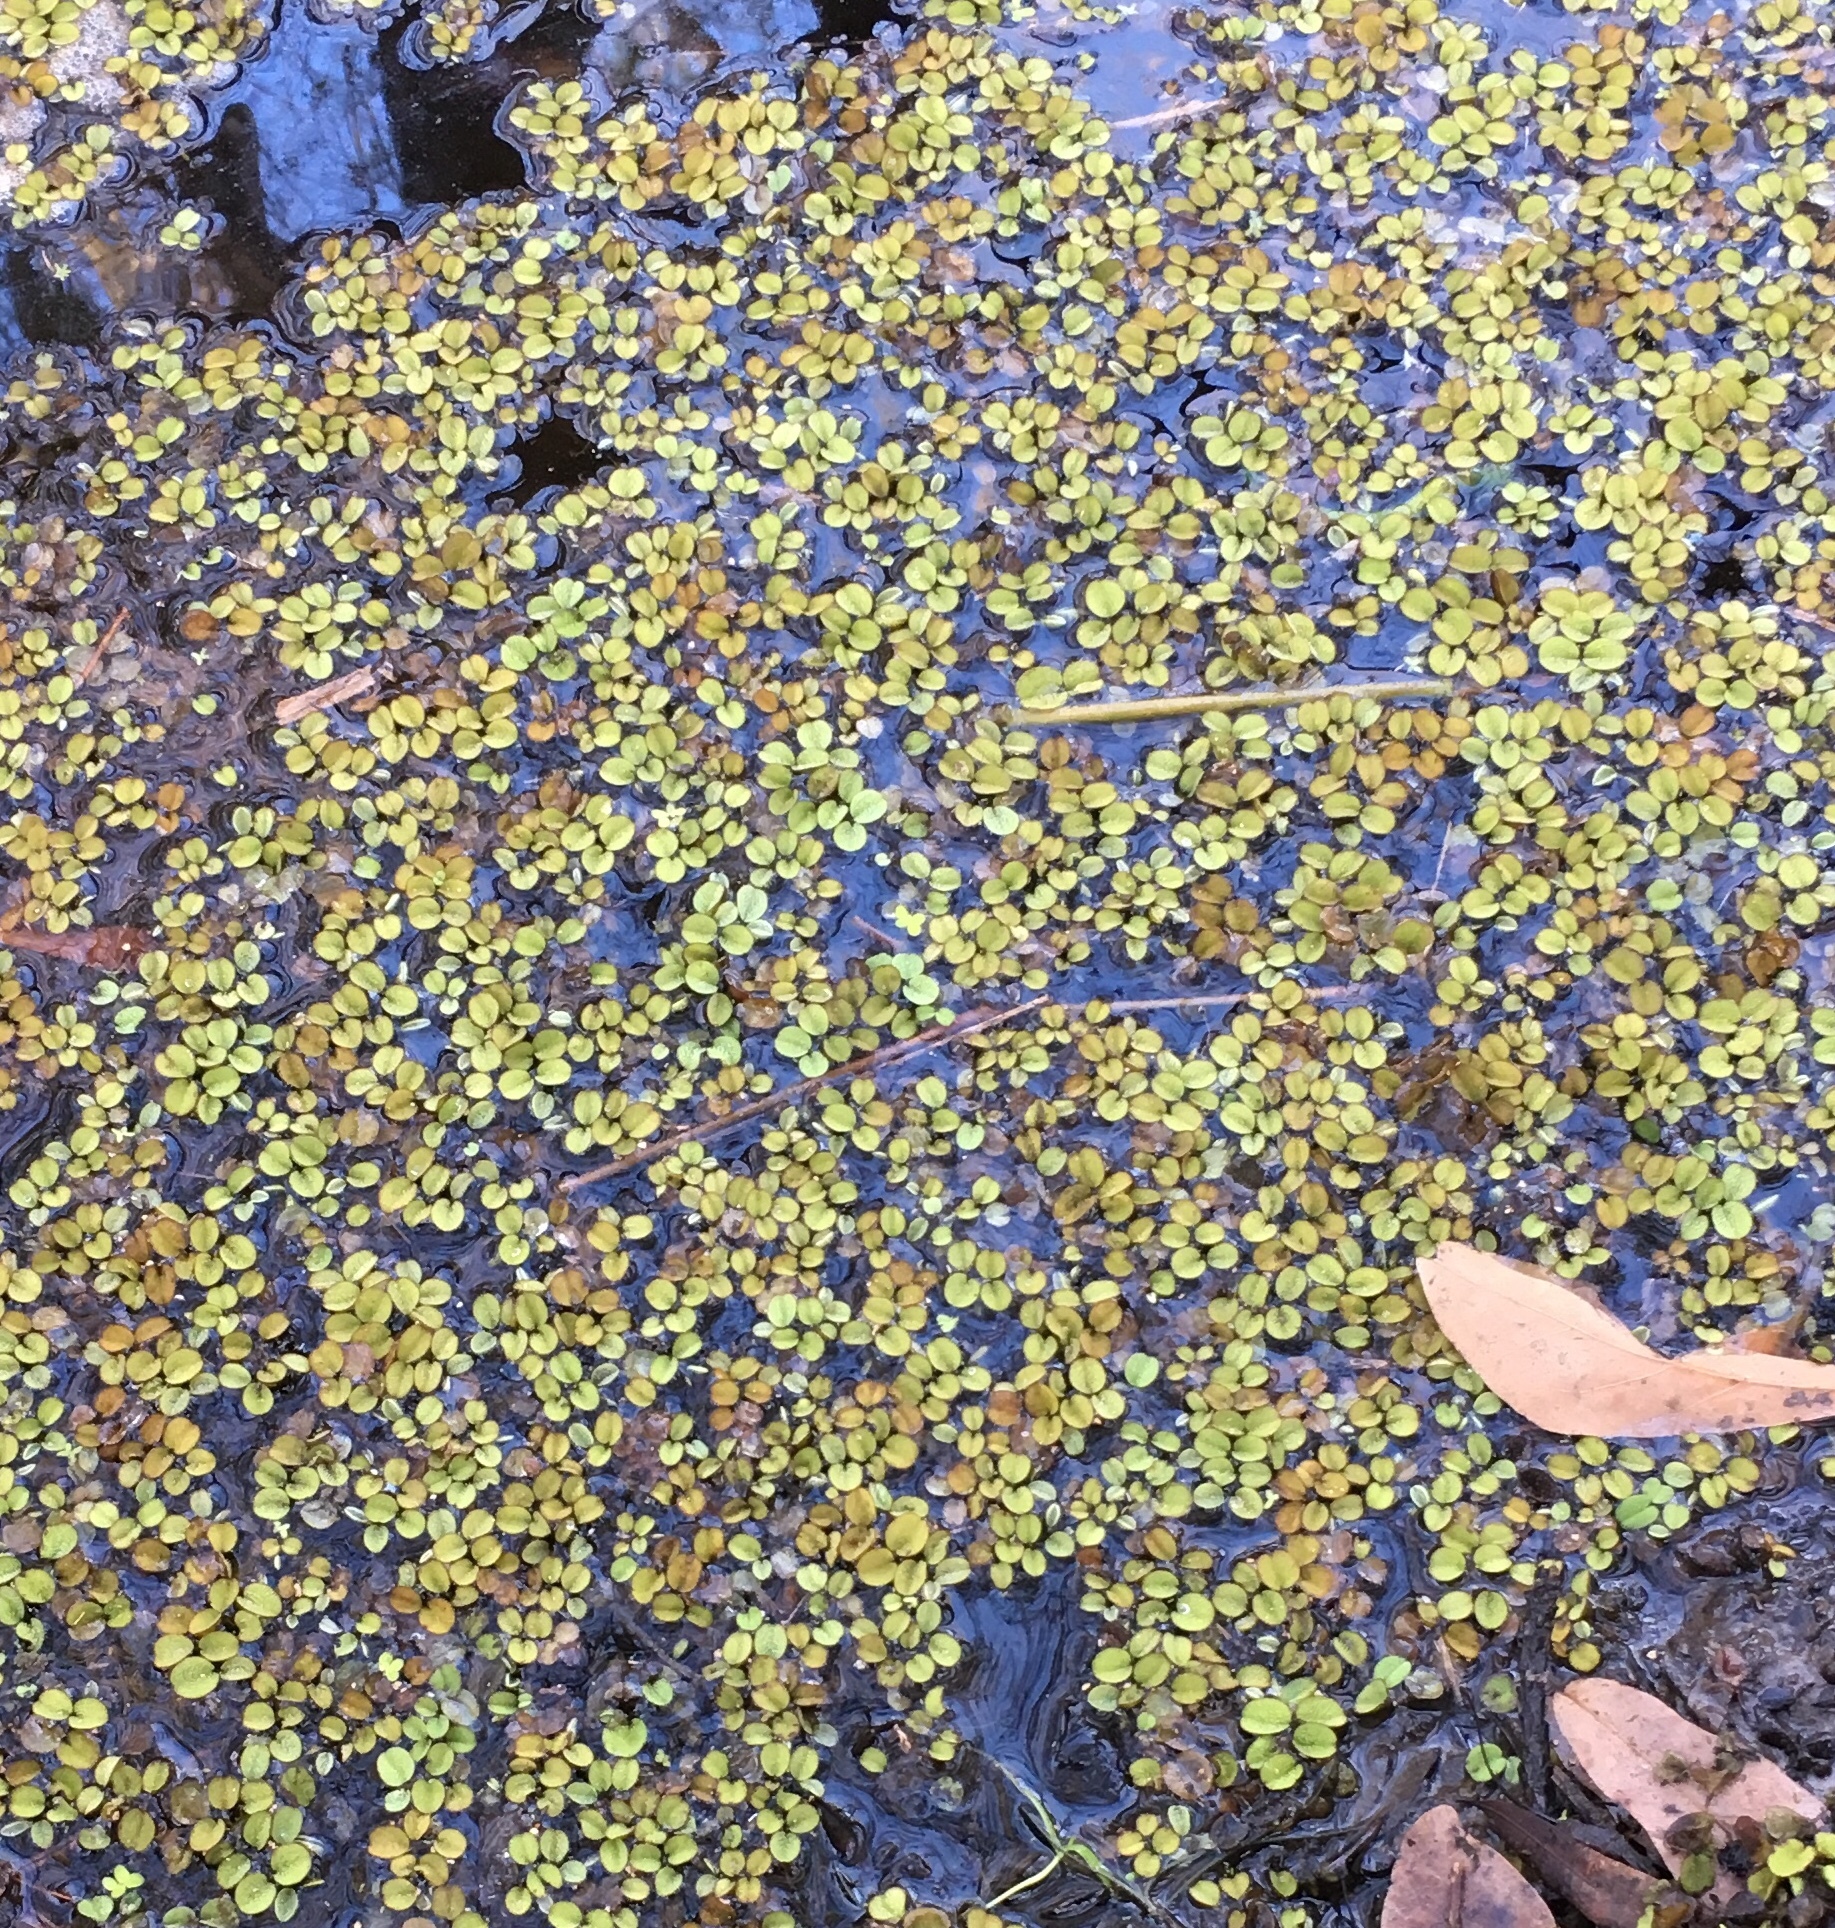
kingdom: Plantae
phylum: Tracheophyta
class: Polypodiopsida
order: Salviniales
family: Salviniaceae
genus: Salvinia
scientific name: Salvinia minima
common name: Water spangles
